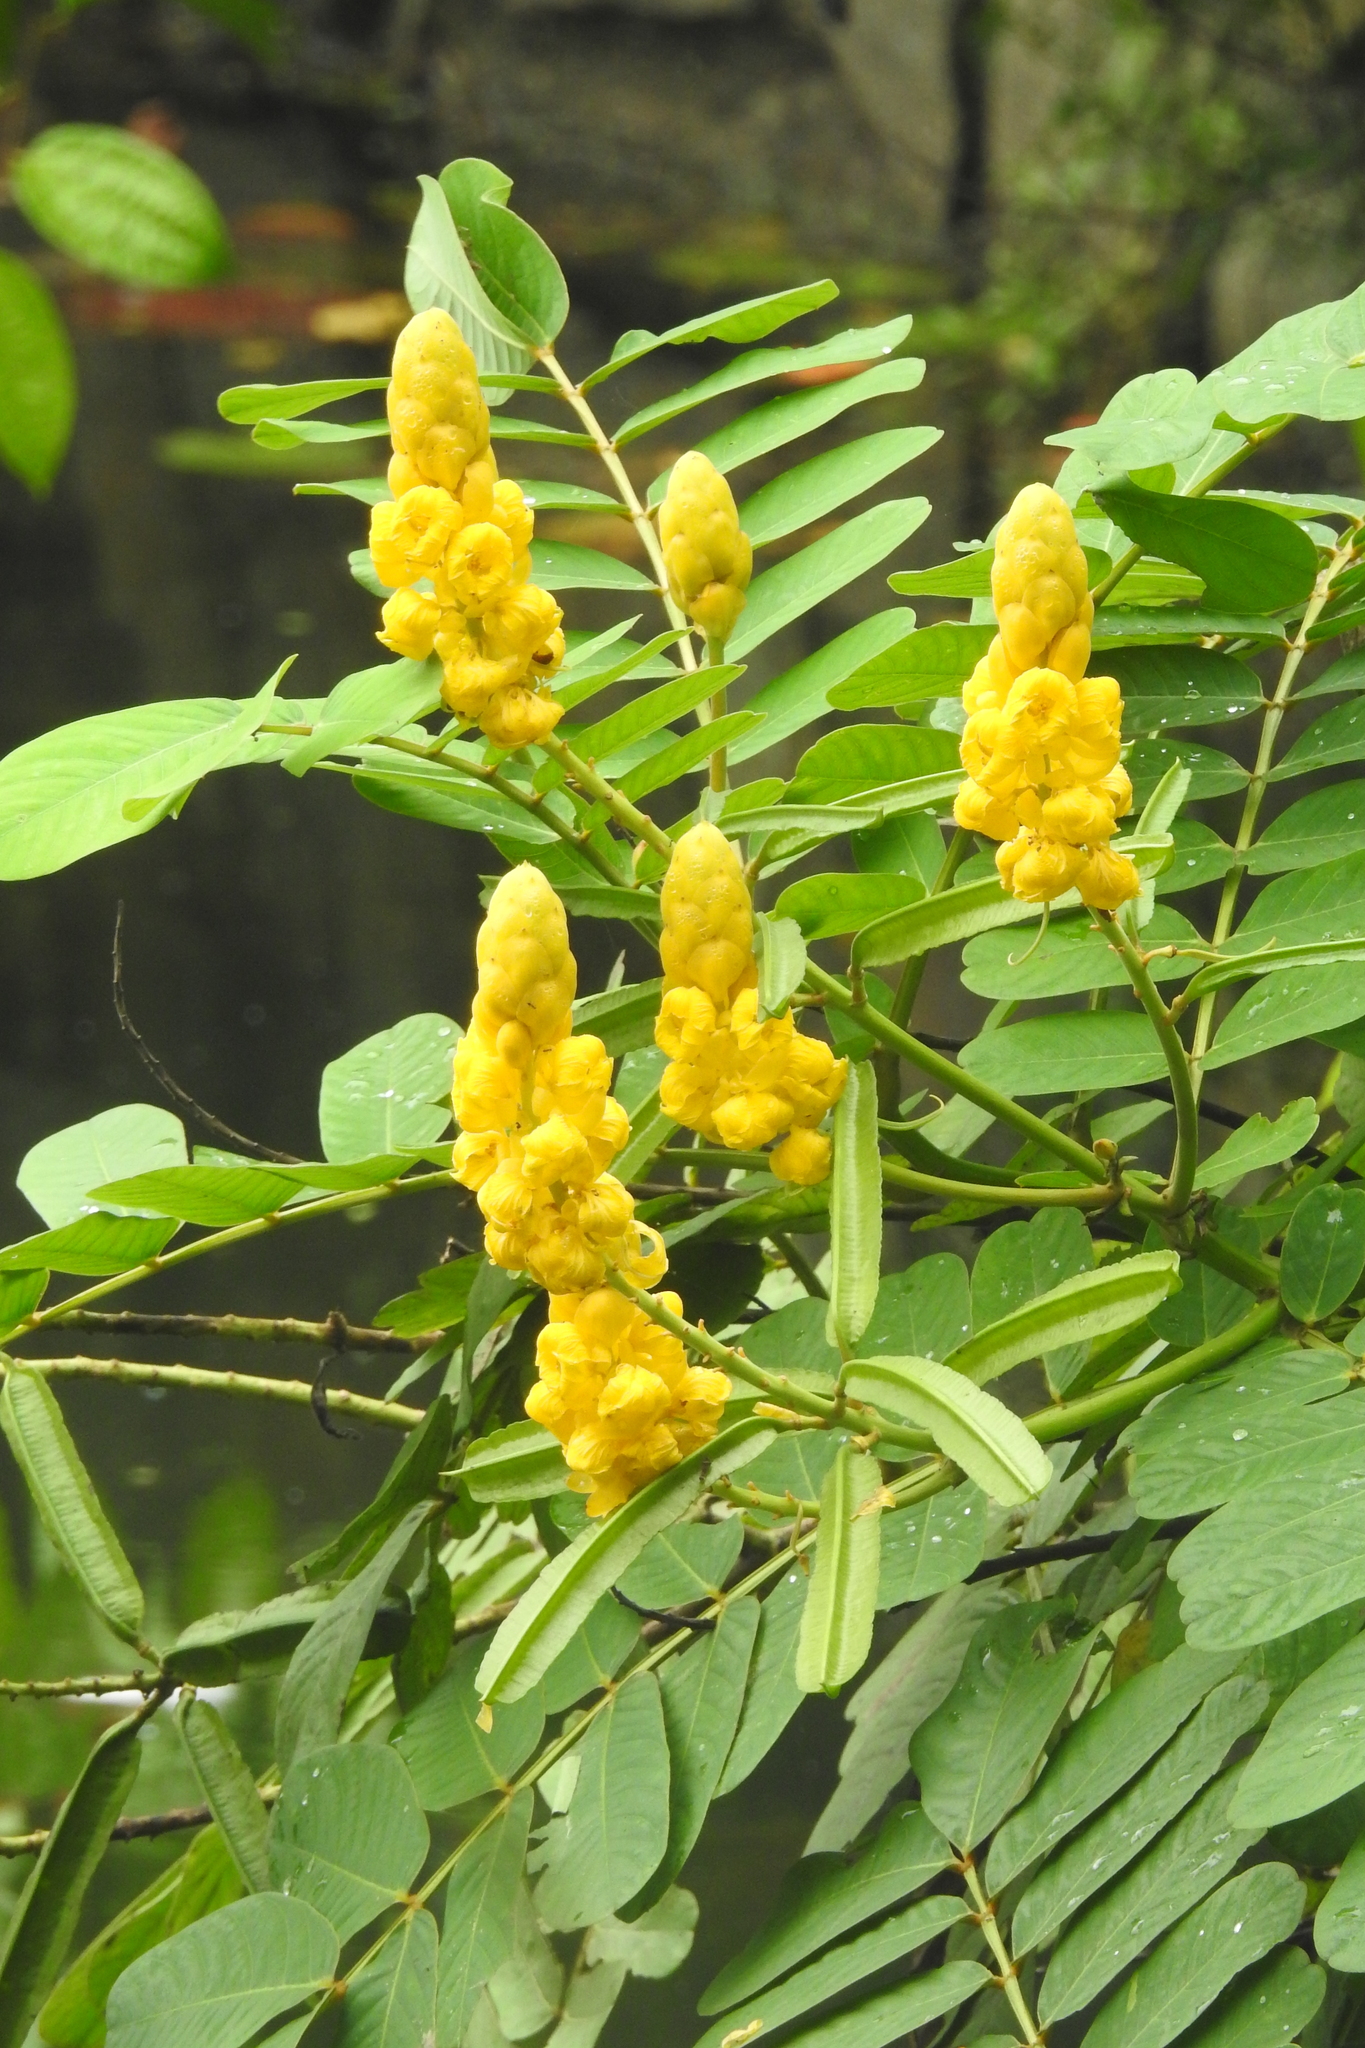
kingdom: Plantae
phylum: Tracheophyta
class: Magnoliopsida
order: Fabales
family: Fabaceae
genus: Senna
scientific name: Senna alata
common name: Emperor's candlesticks
